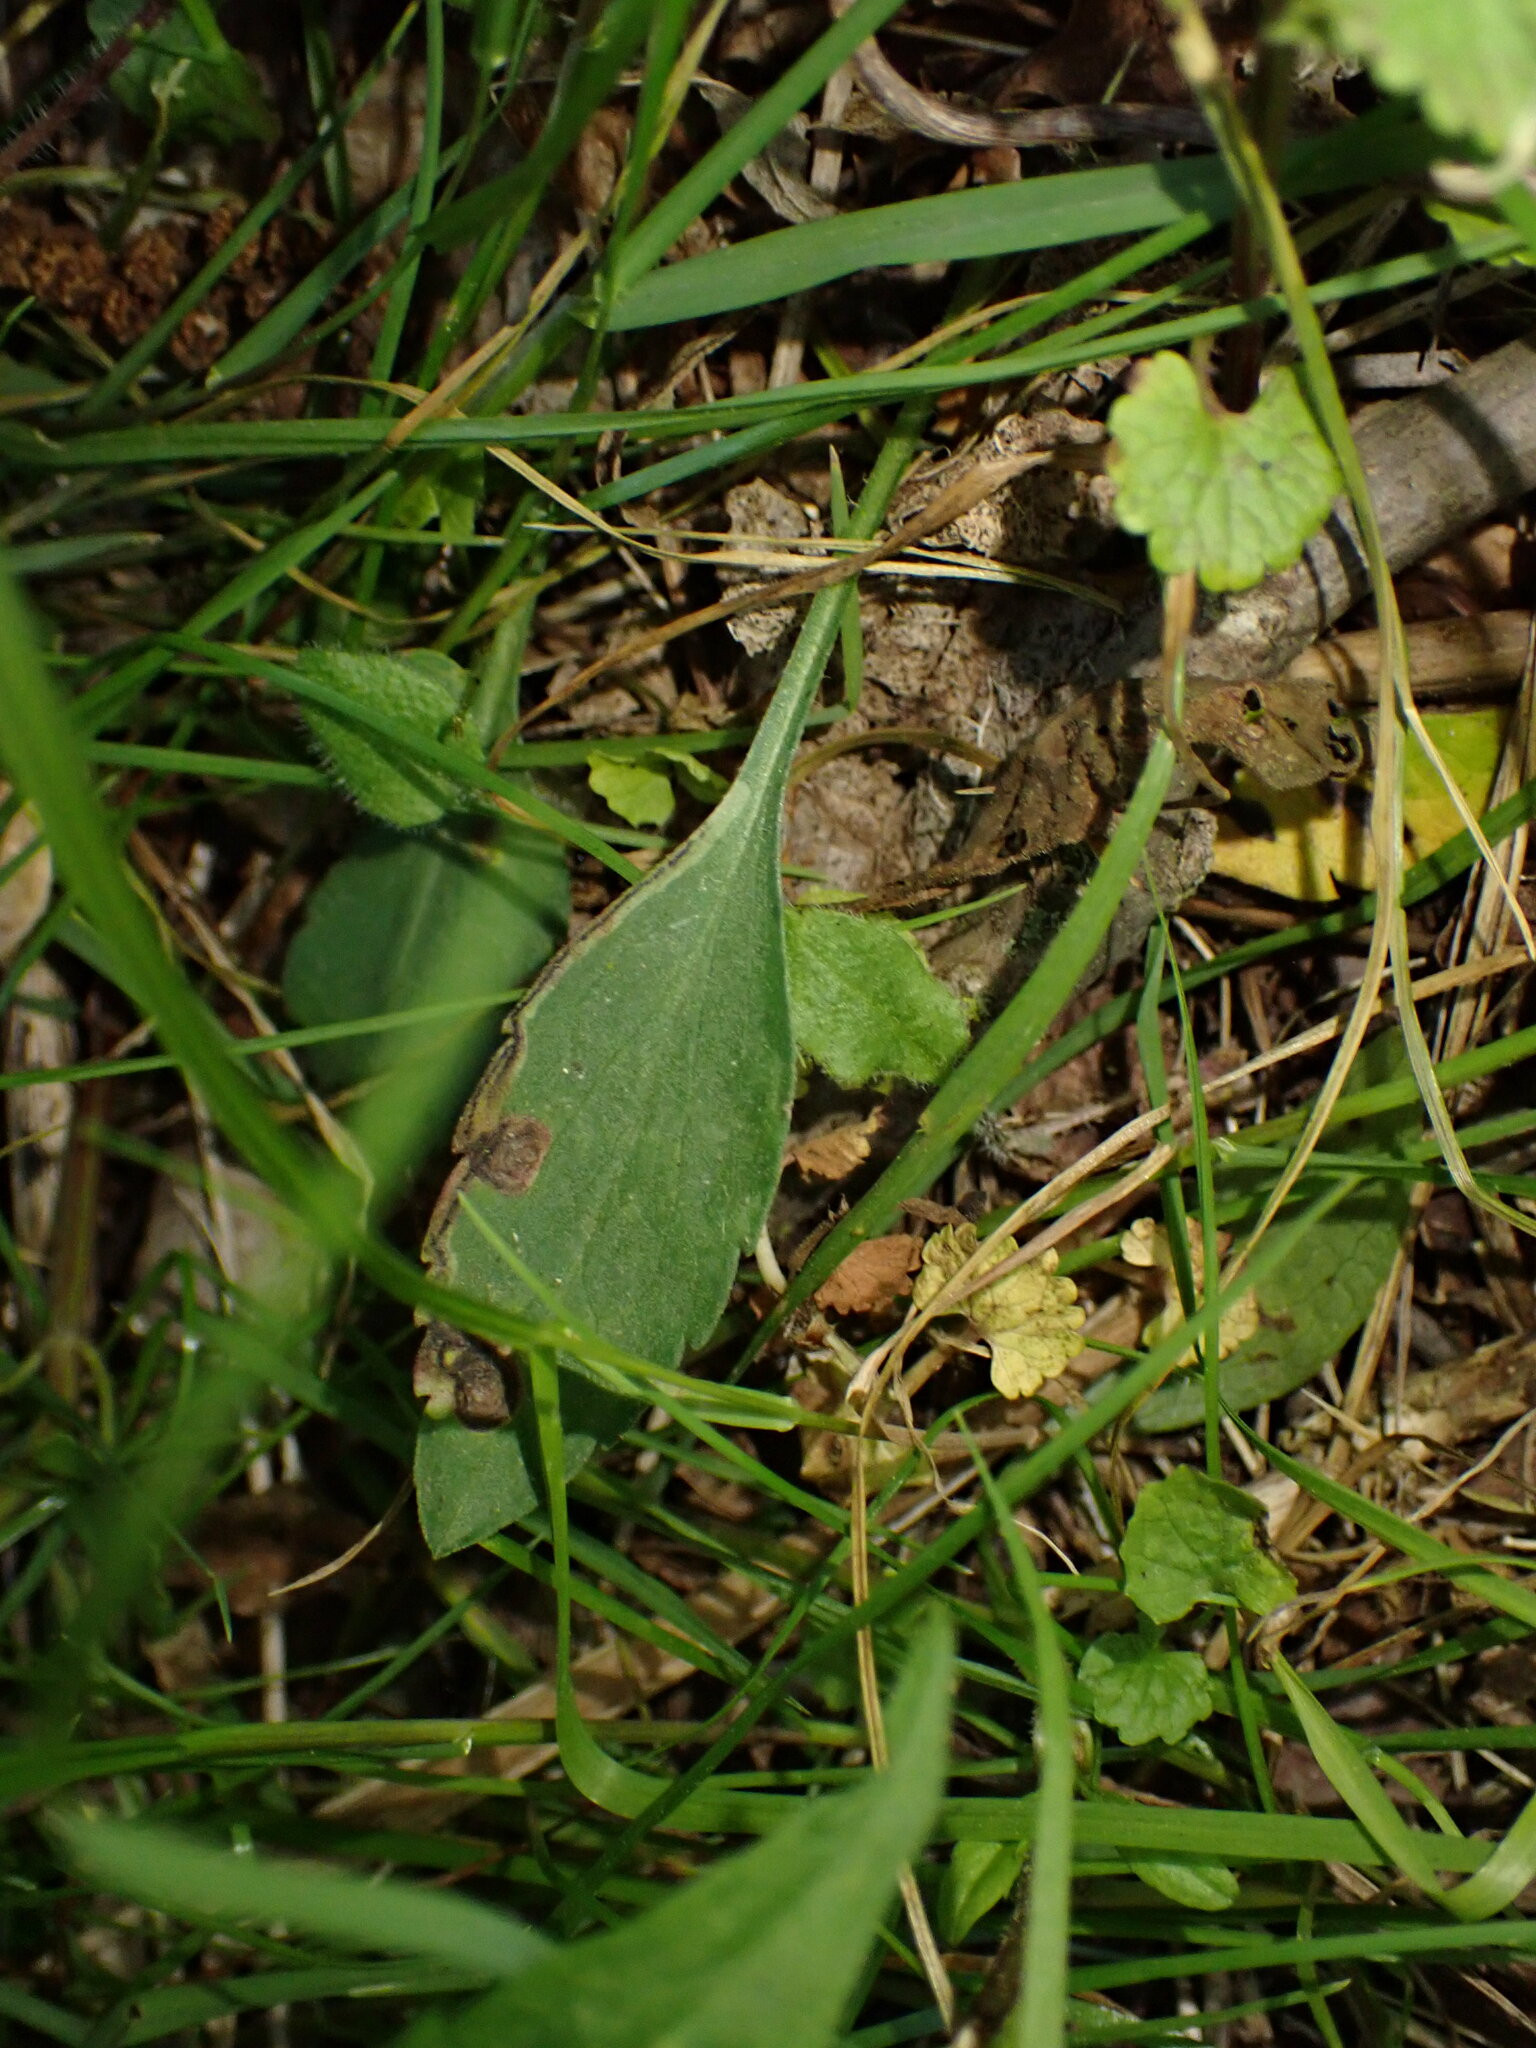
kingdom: Animalia
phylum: Arthropoda
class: Insecta
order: Diptera
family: Agromyzidae
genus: Liriomyza
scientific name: Liriomyza eupatorii
